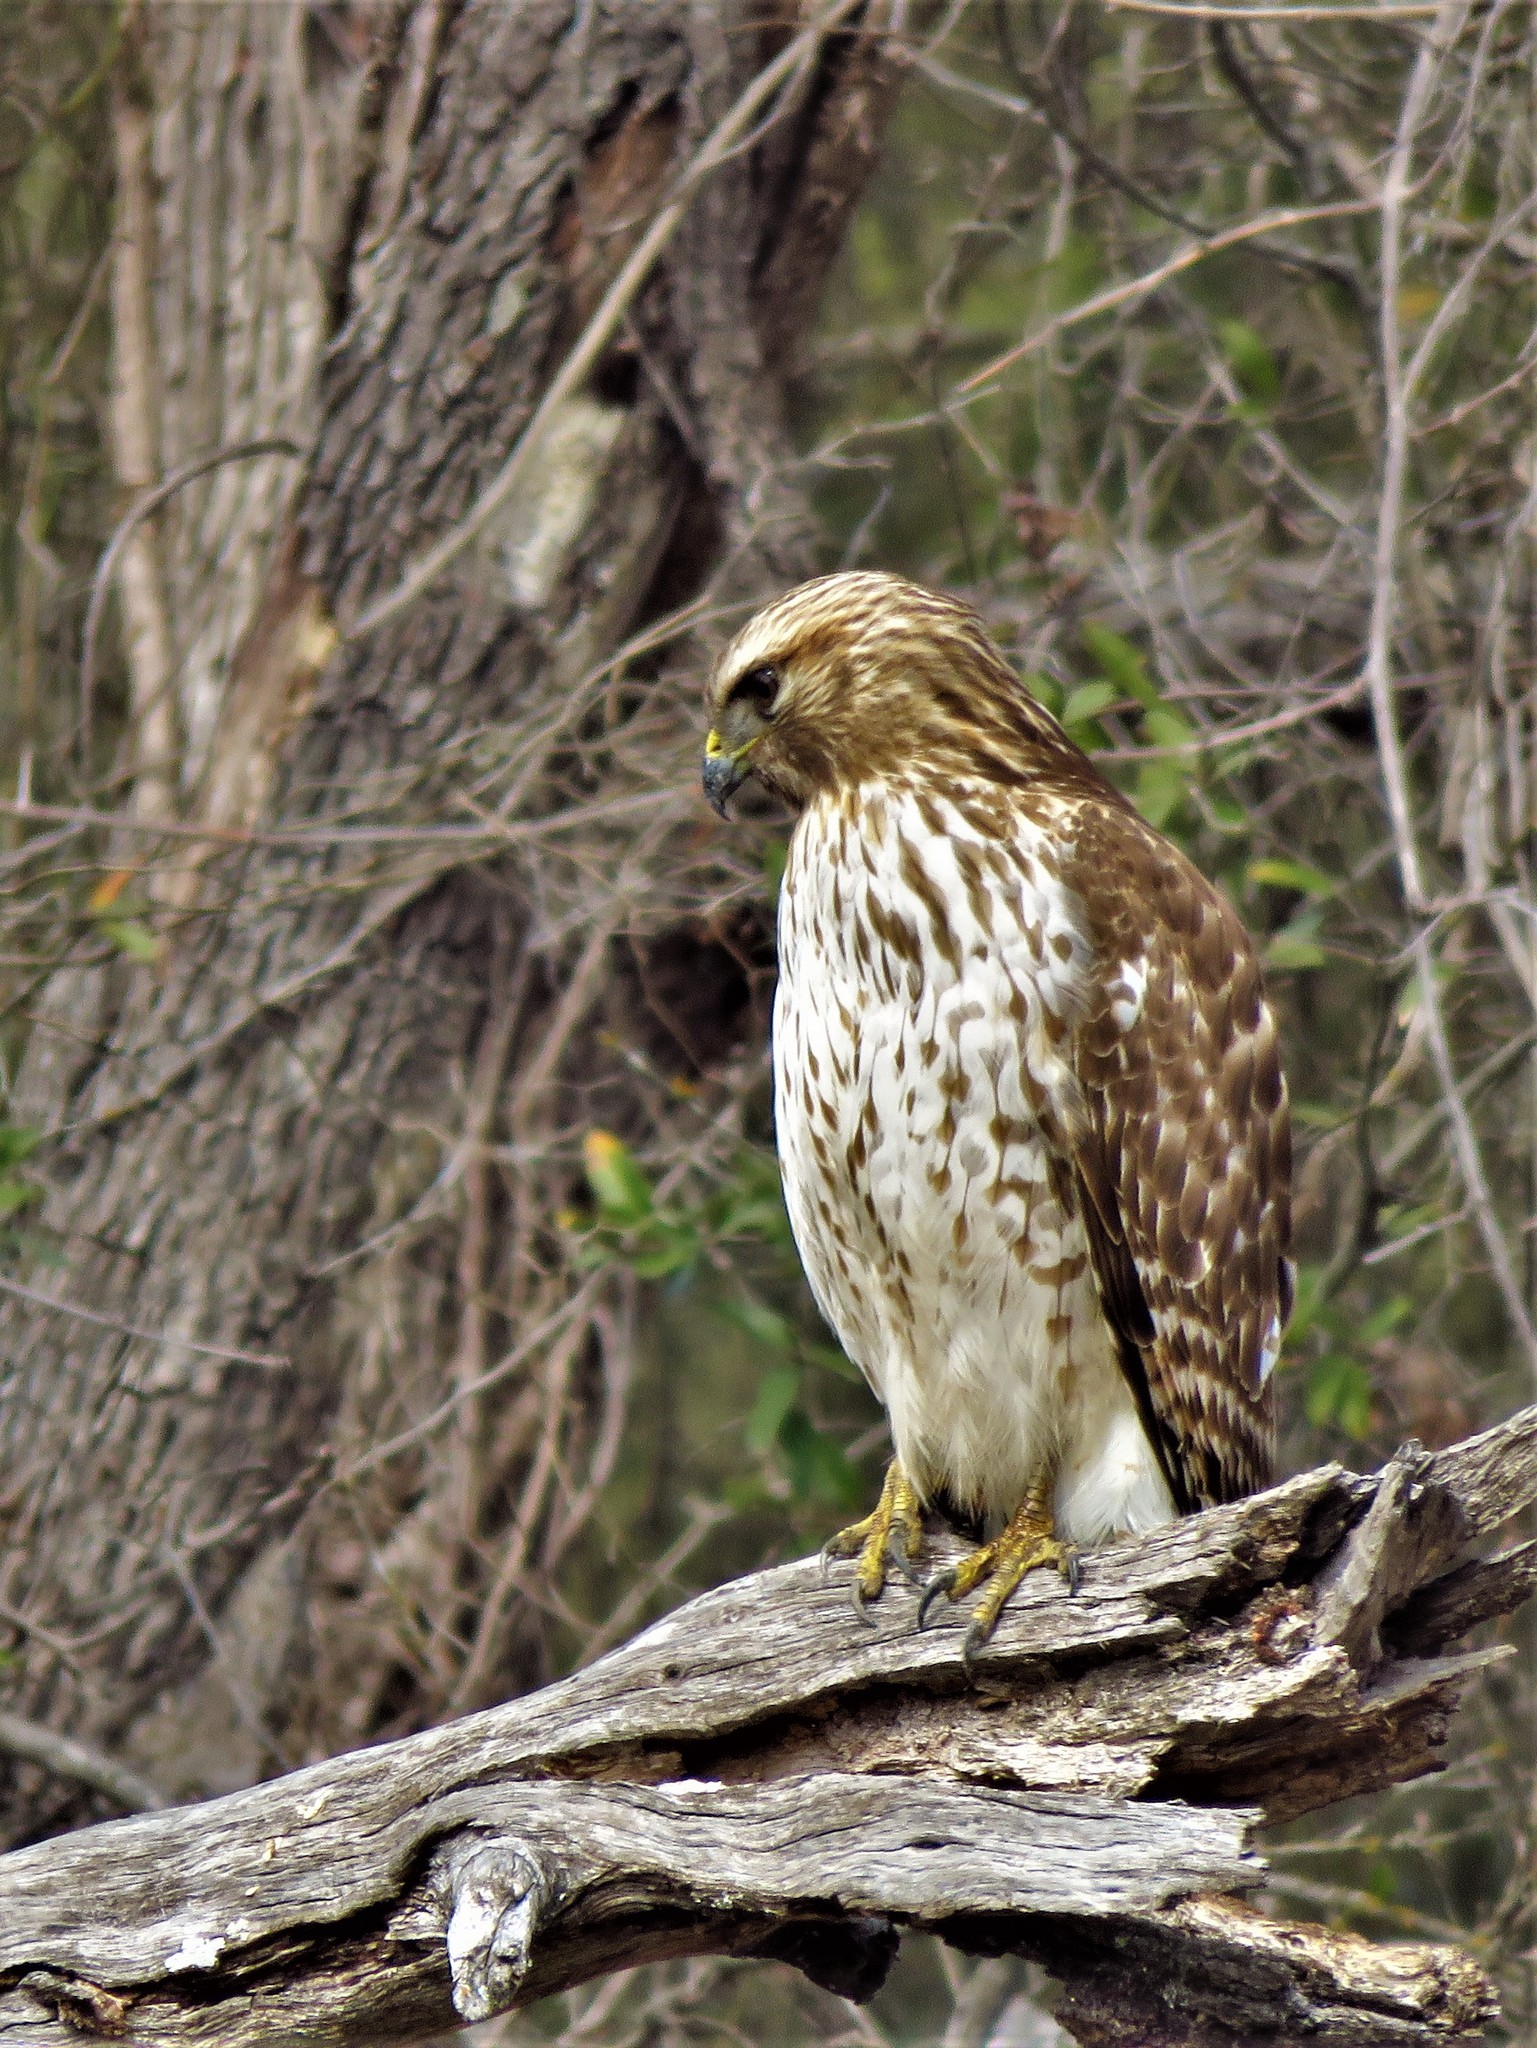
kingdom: Animalia
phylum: Chordata
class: Aves
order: Accipitriformes
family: Accipitridae
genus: Buteo
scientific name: Buteo lineatus
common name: Red-shouldered hawk
